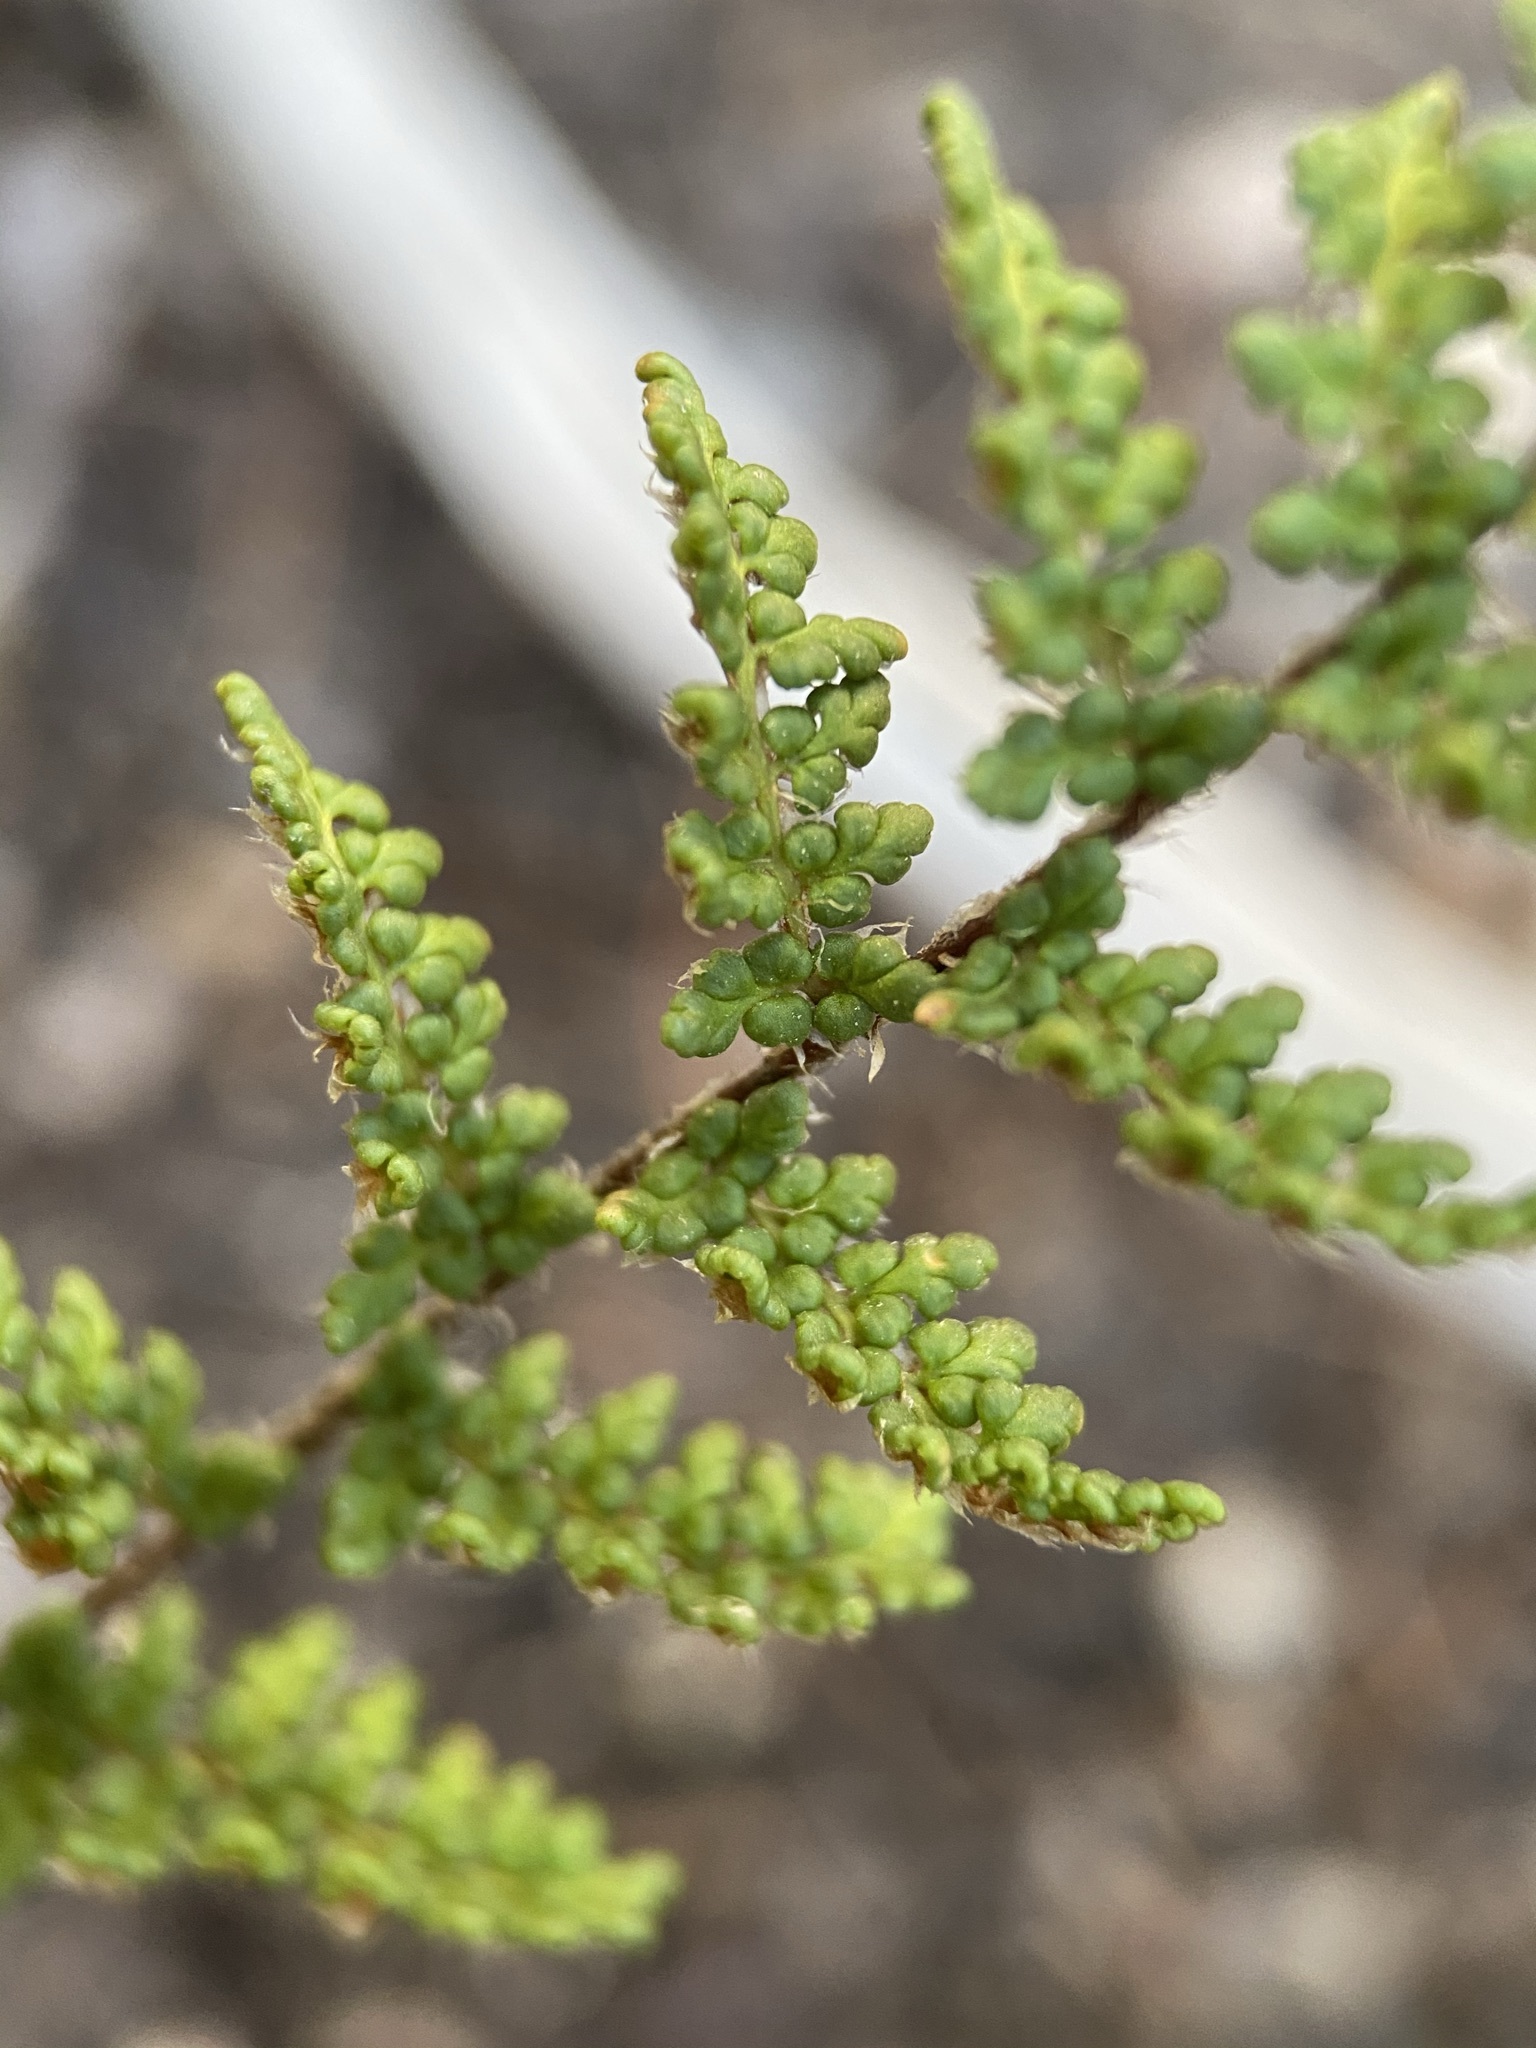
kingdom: Plantae
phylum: Tracheophyta
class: Polypodiopsida
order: Polypodiales
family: Pteridaceae
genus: Myriopteris
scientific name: Myriopteris fendleri
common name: Fendler's lip fern
